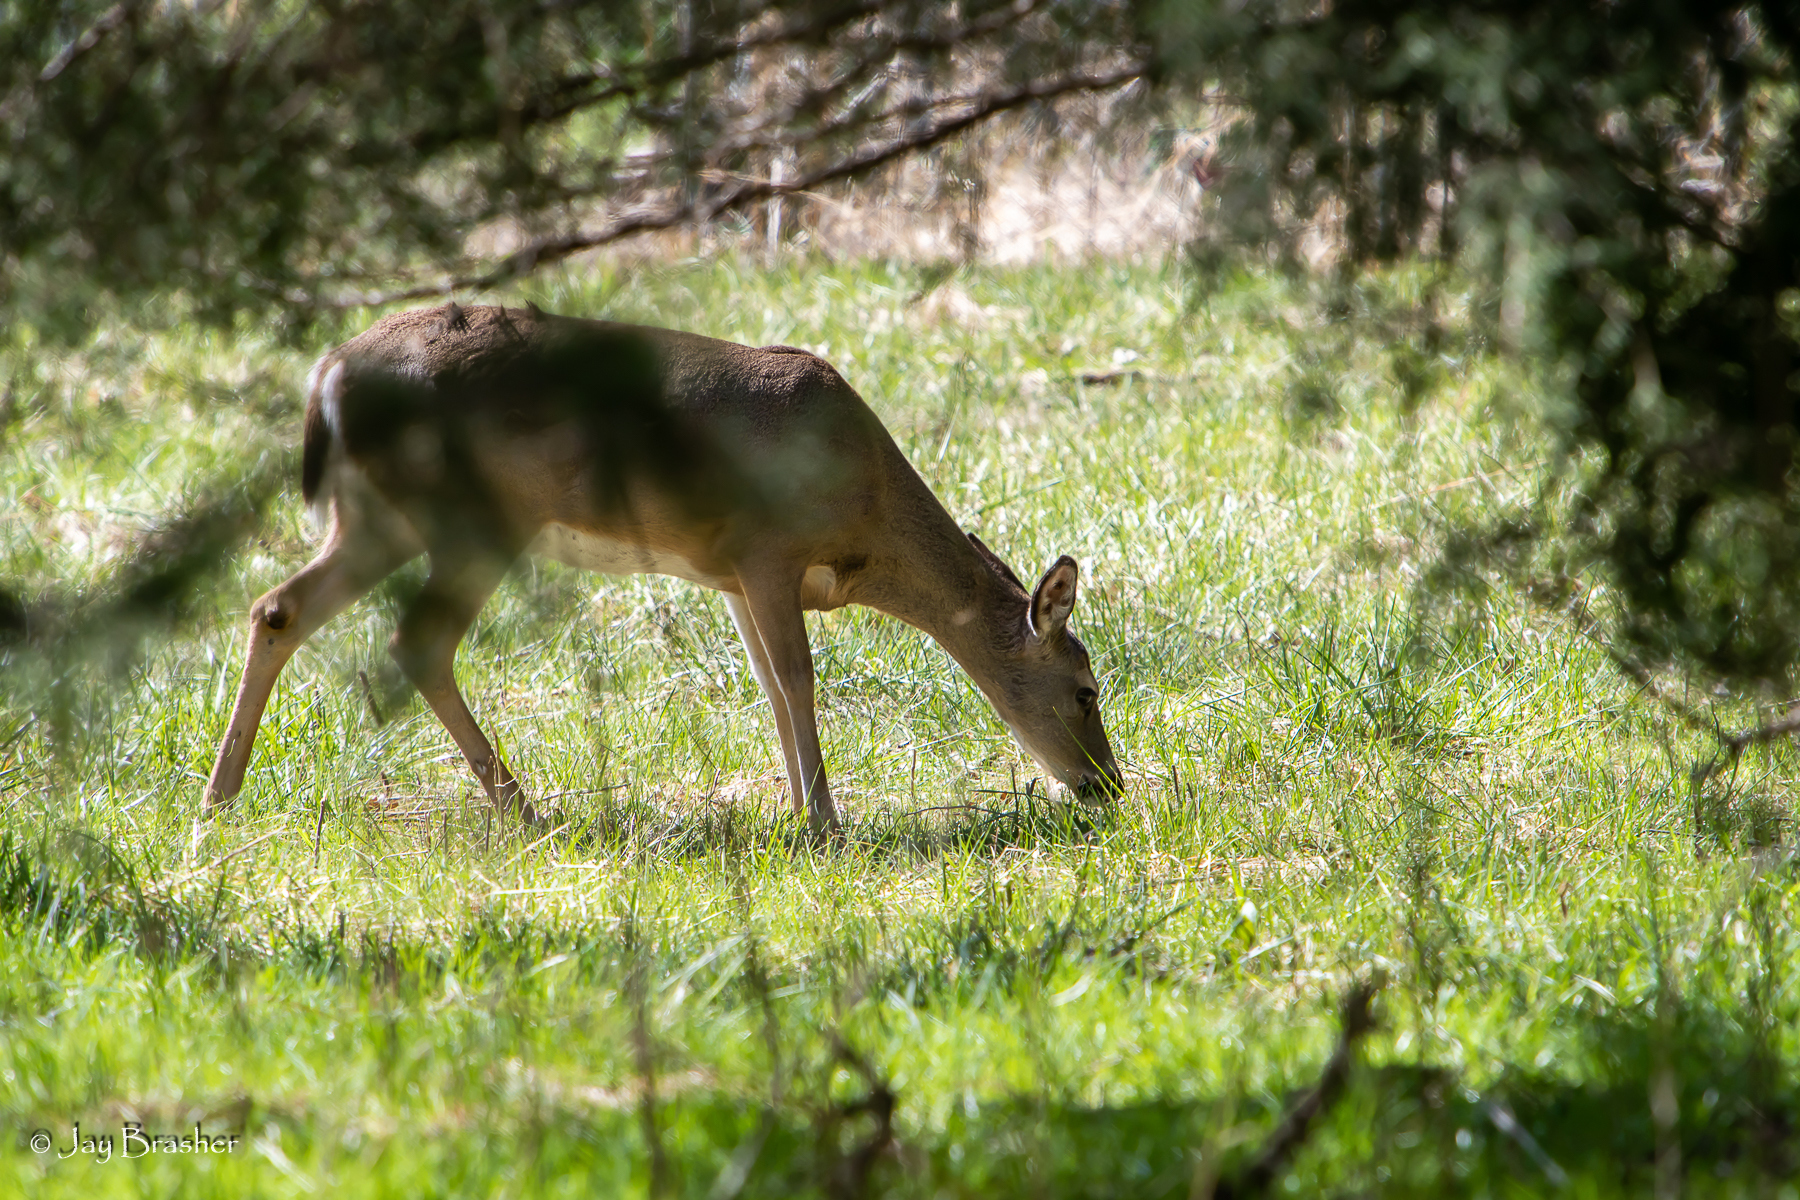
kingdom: Animalia
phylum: Chordata
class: Mammalia
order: Artiodactyla
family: Cervidae
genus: Odocoileus
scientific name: Odocoileus virginianus
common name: White-tailed deer
